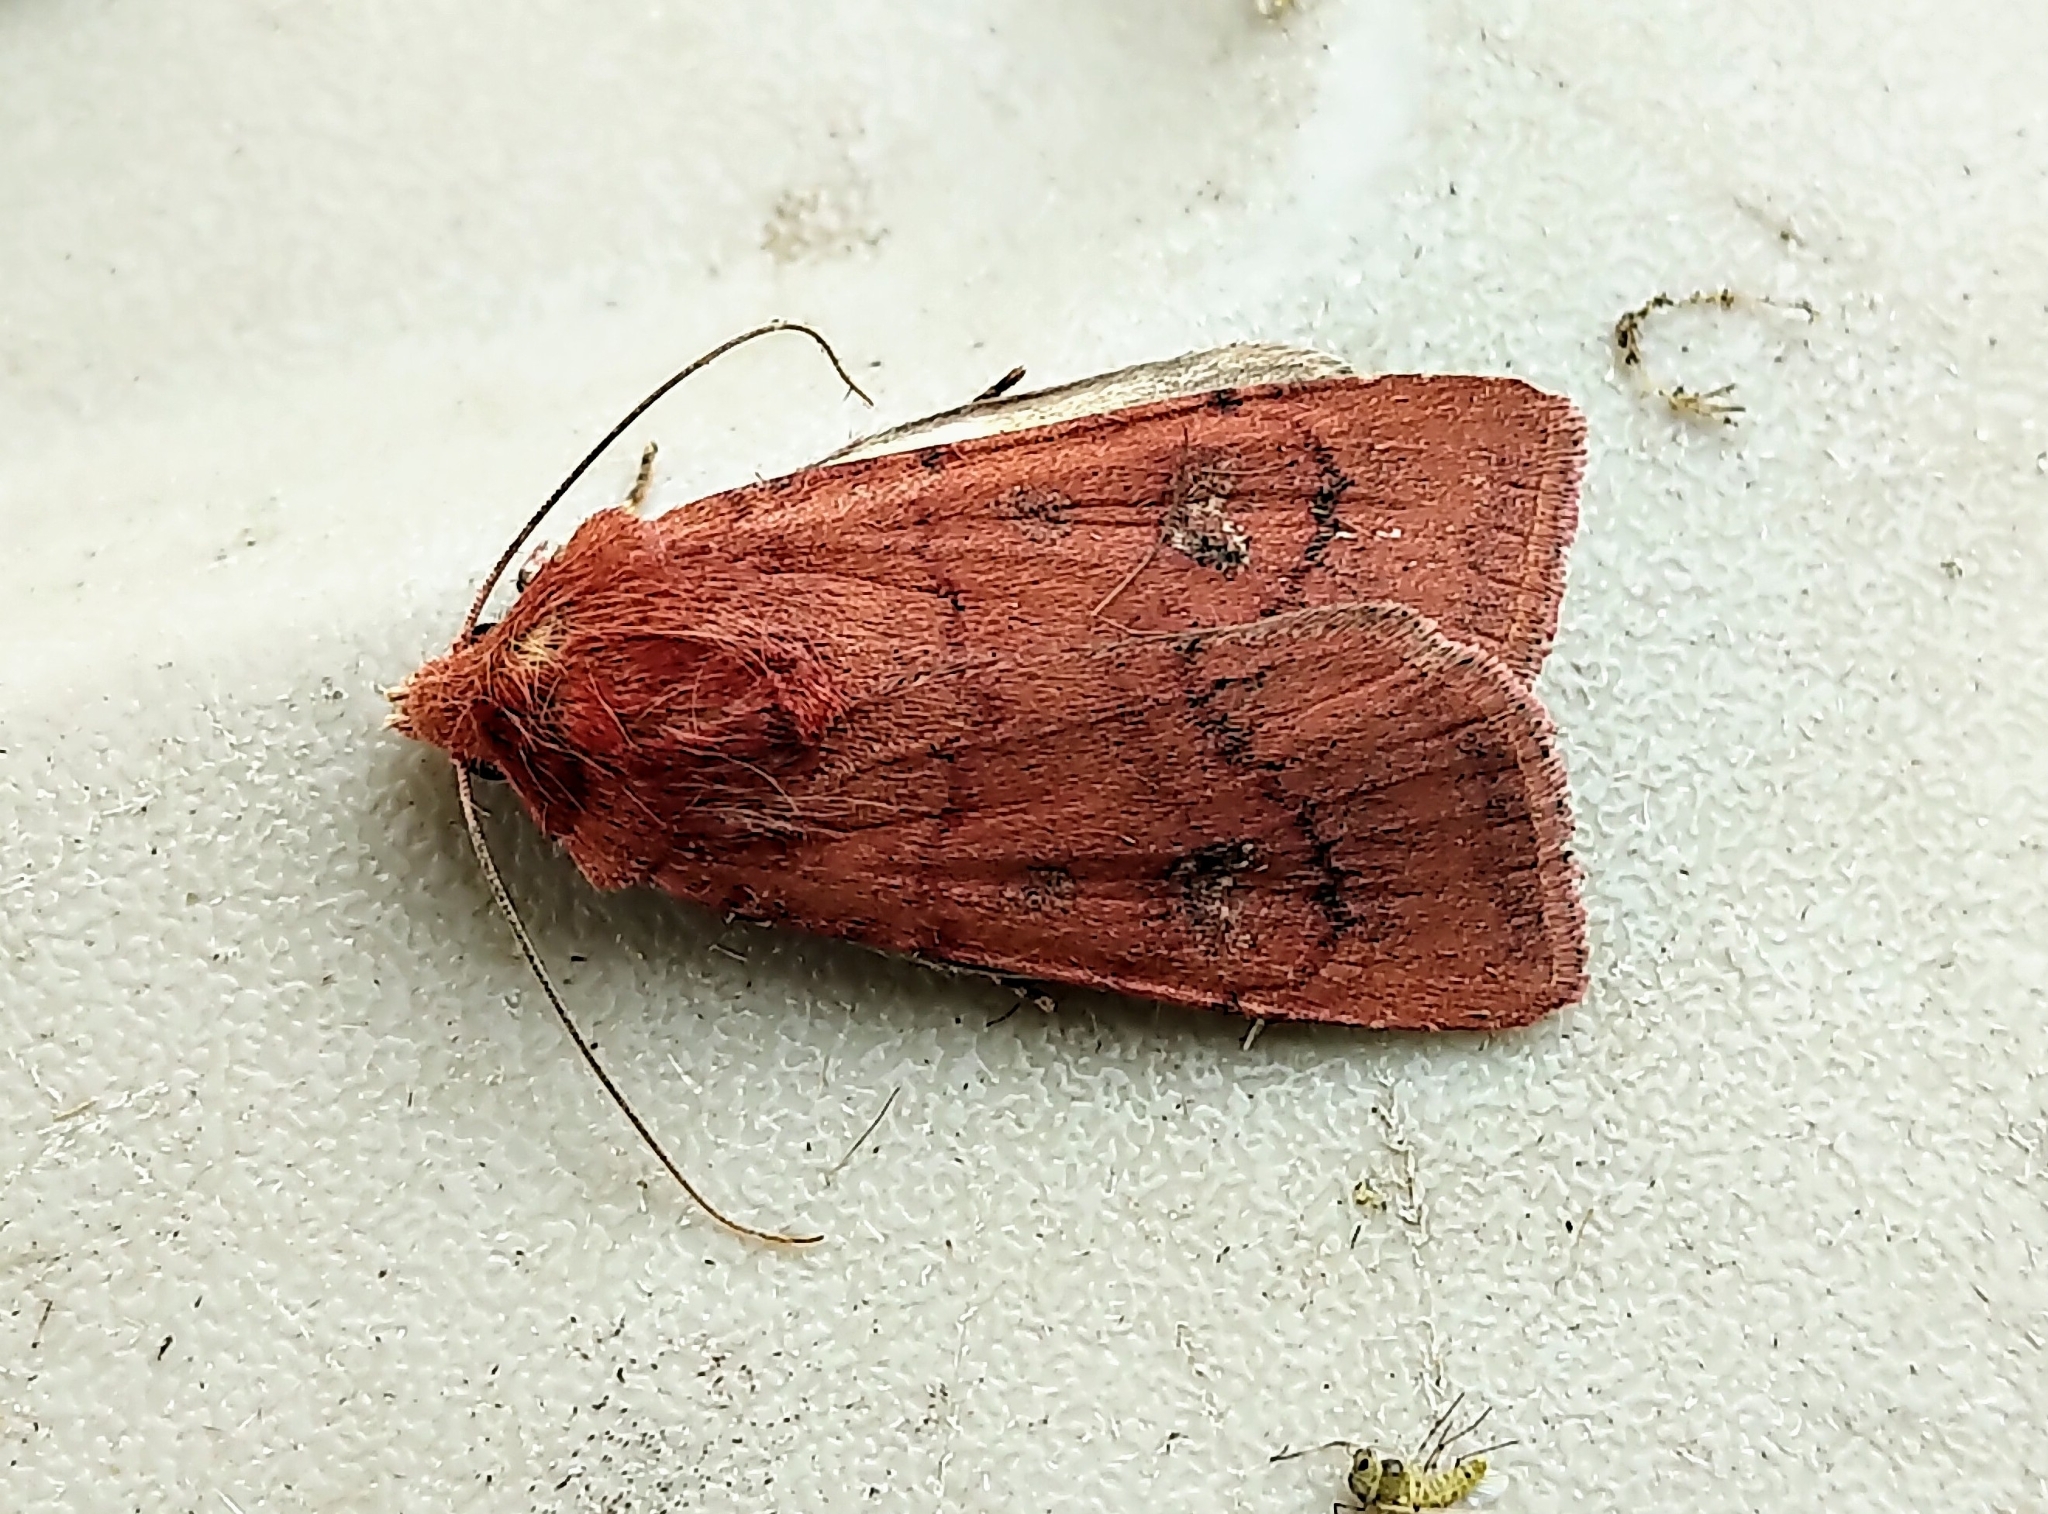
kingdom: Animalia
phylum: Arthropoda
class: Insecta
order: Lepidoptera
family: Noctuidae
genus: Euxoa
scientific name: Euxoa mimallonis
